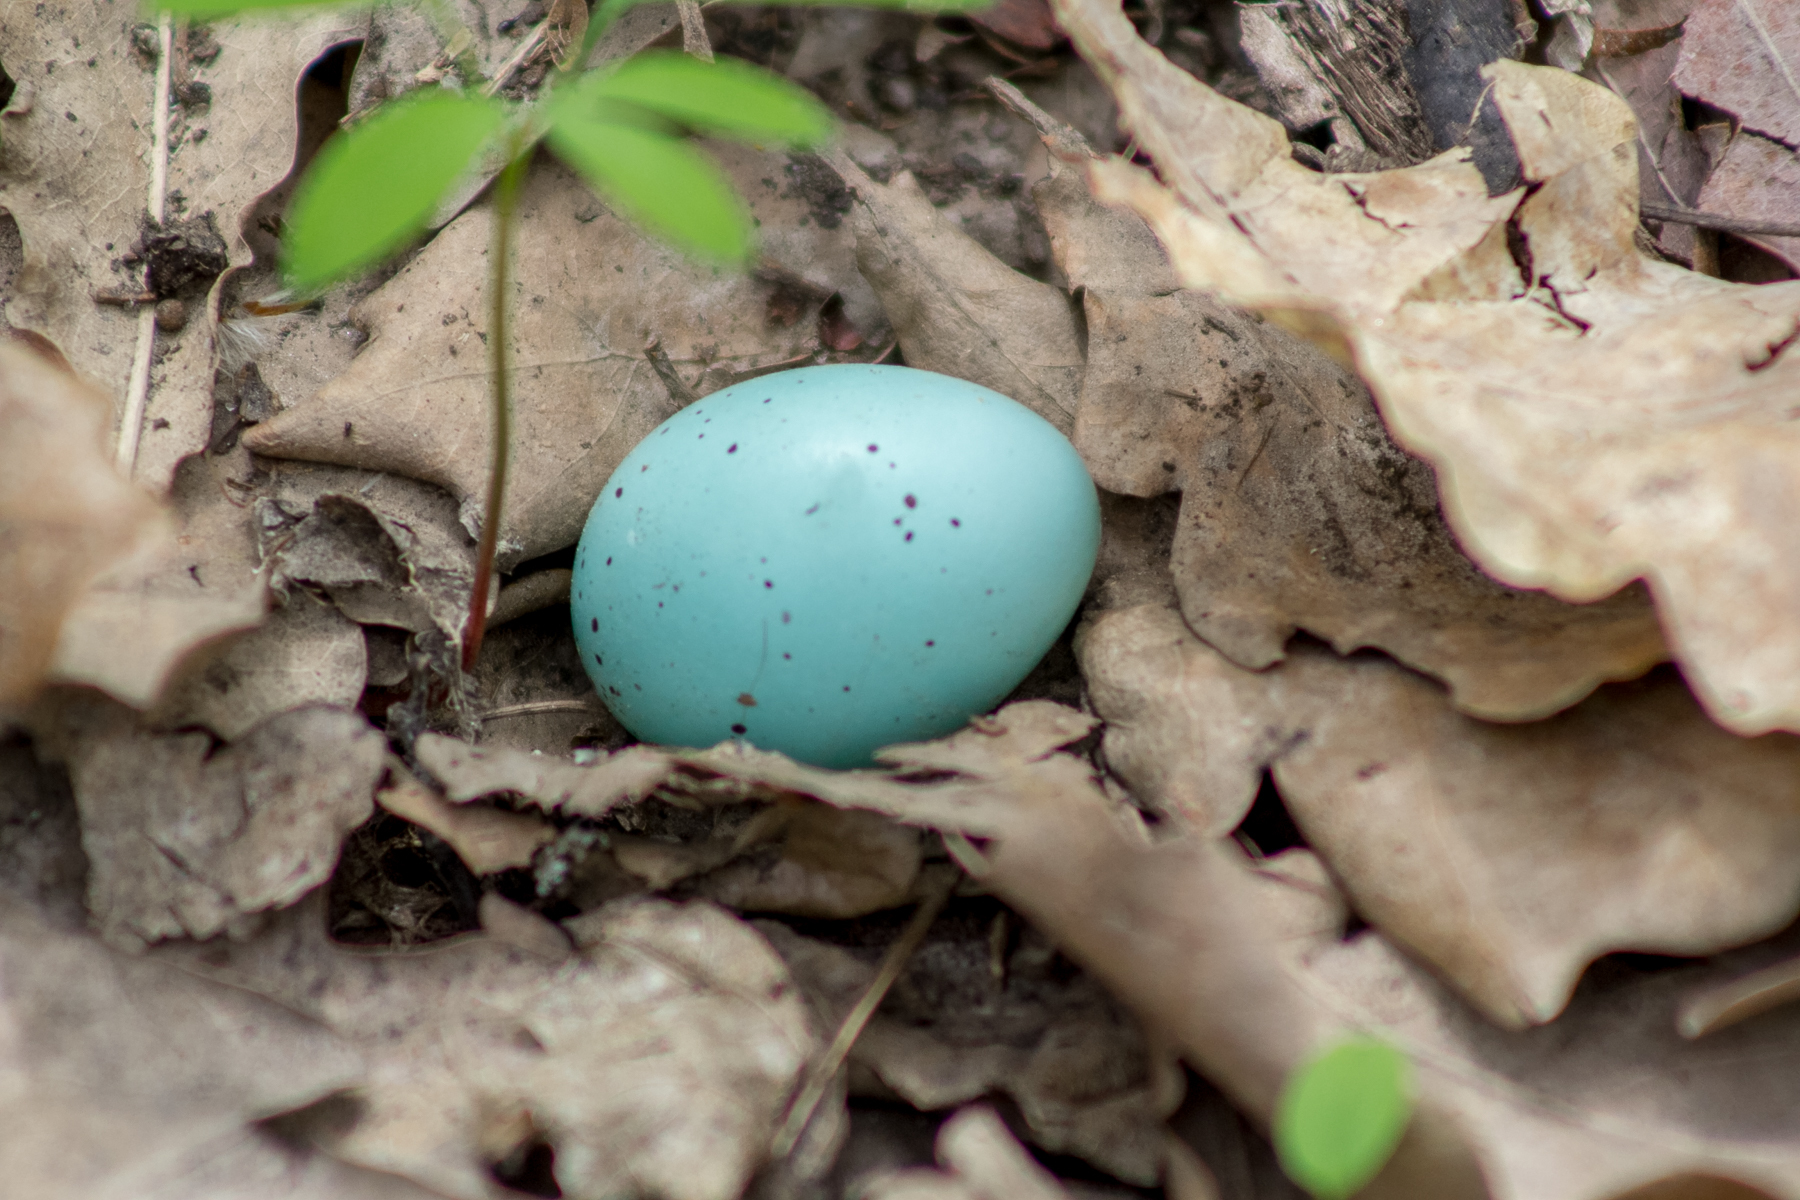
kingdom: Animalia
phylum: Chordata
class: Aves
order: Passeriformes
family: Turdidae
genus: Turdus
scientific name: Turdus philomelos
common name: Song thrush
